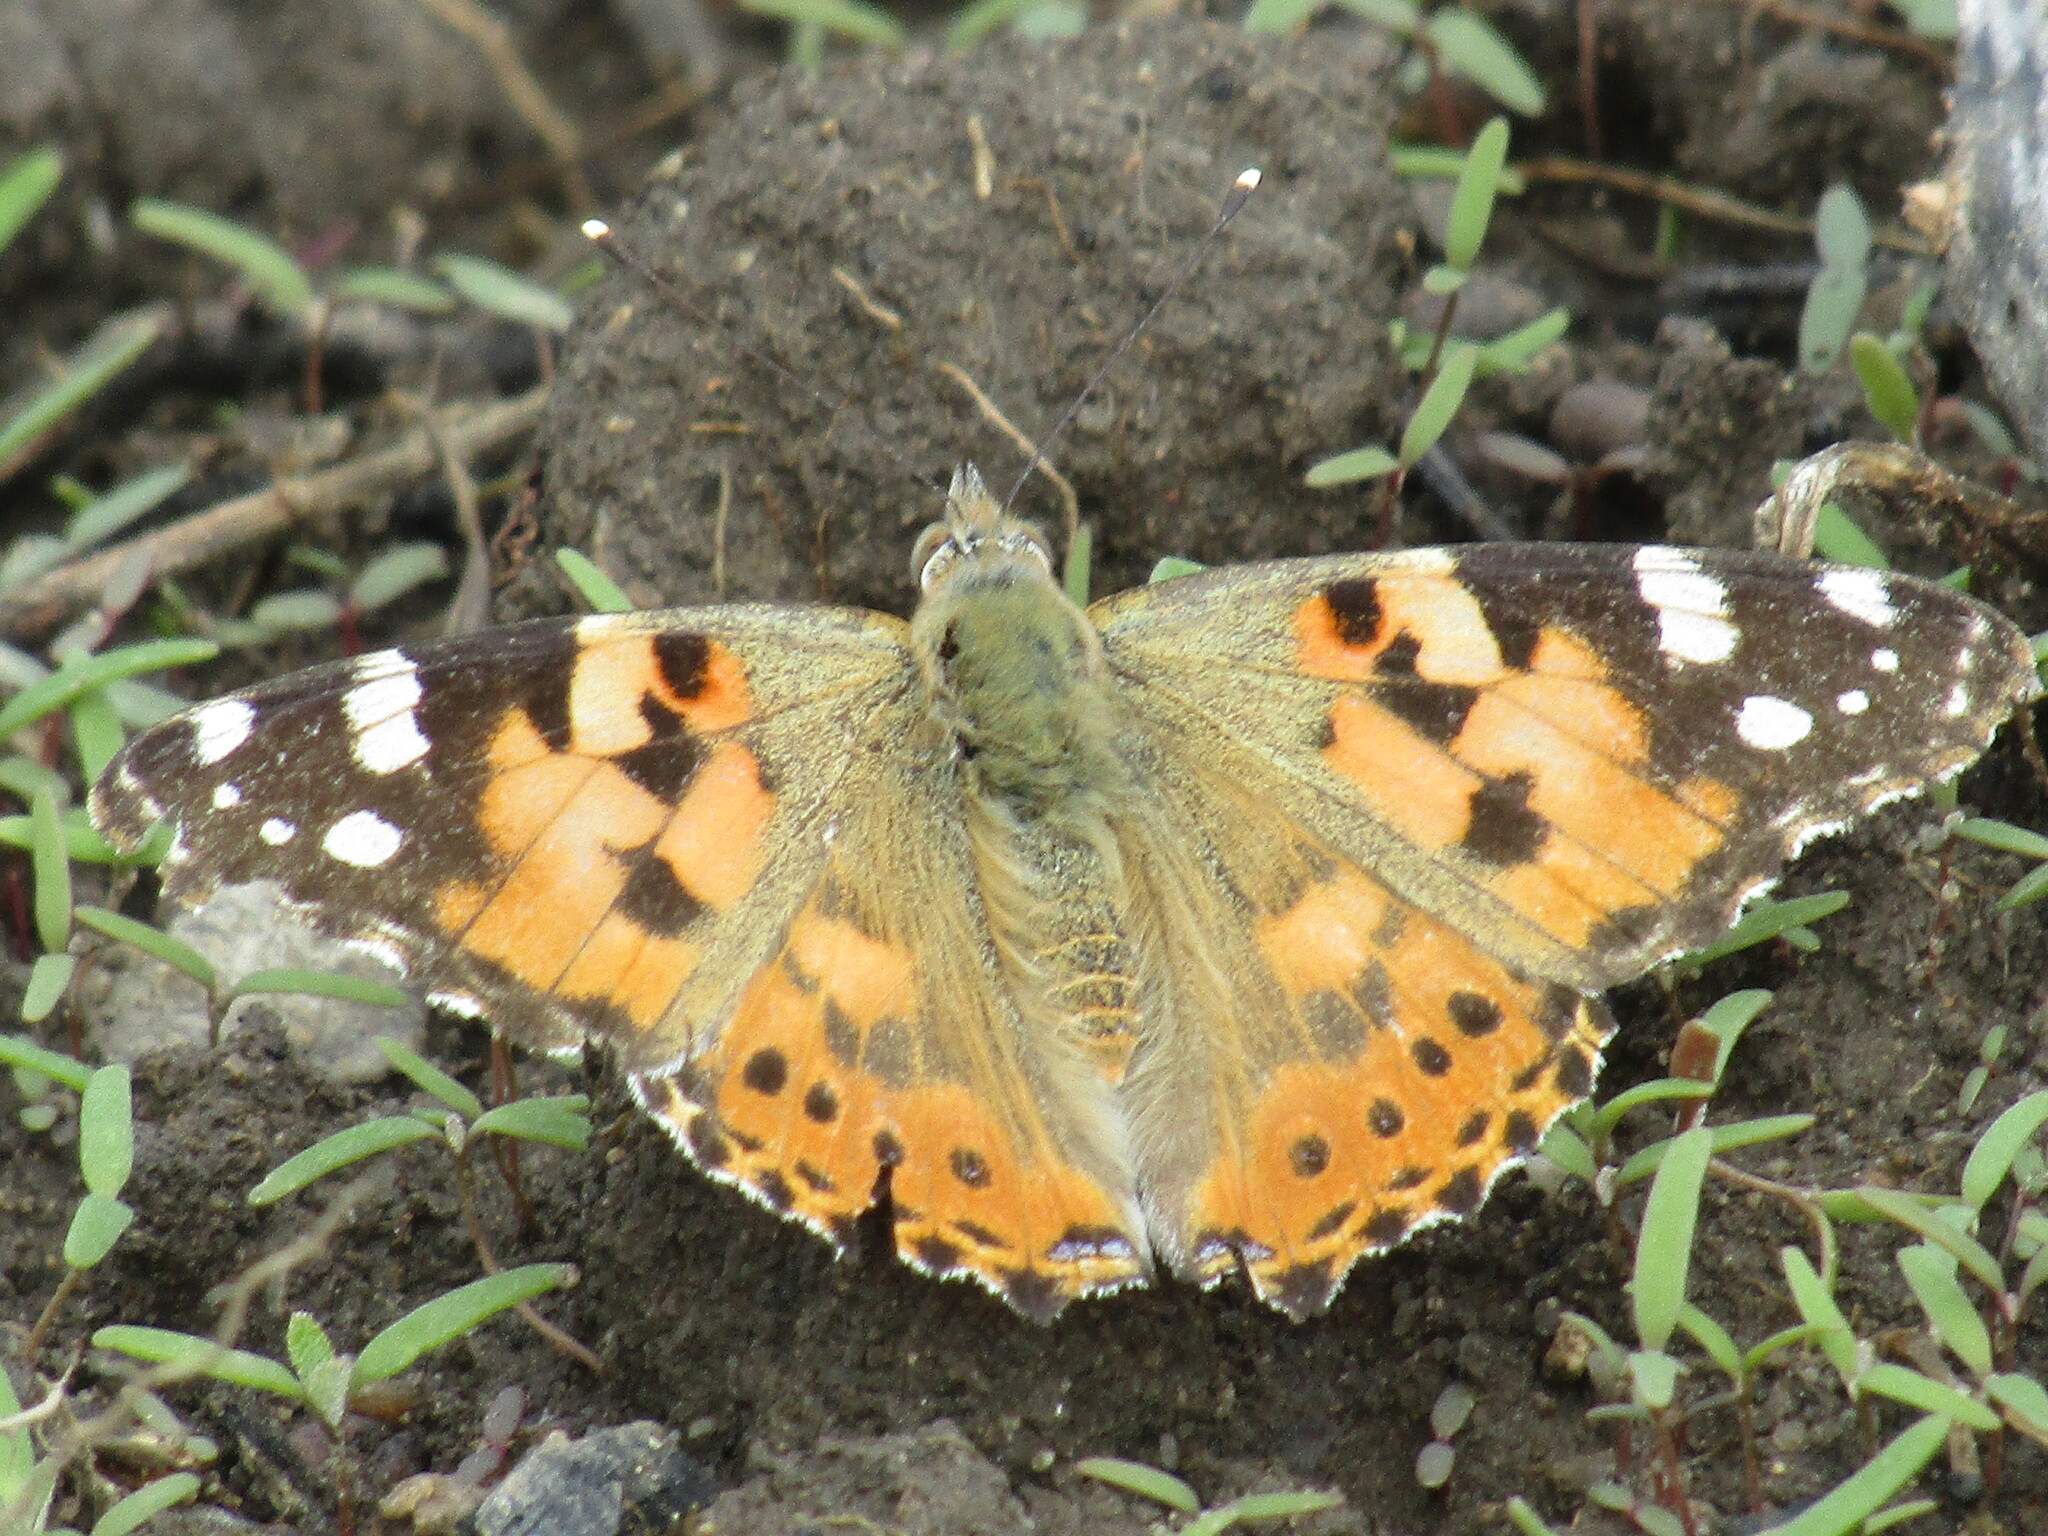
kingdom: Animalia
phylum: Arthropoda
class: Insecta
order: Lepidoptera
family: Nymphalidae
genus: Vanessa
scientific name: Vanessa cardui
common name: Painted lady
